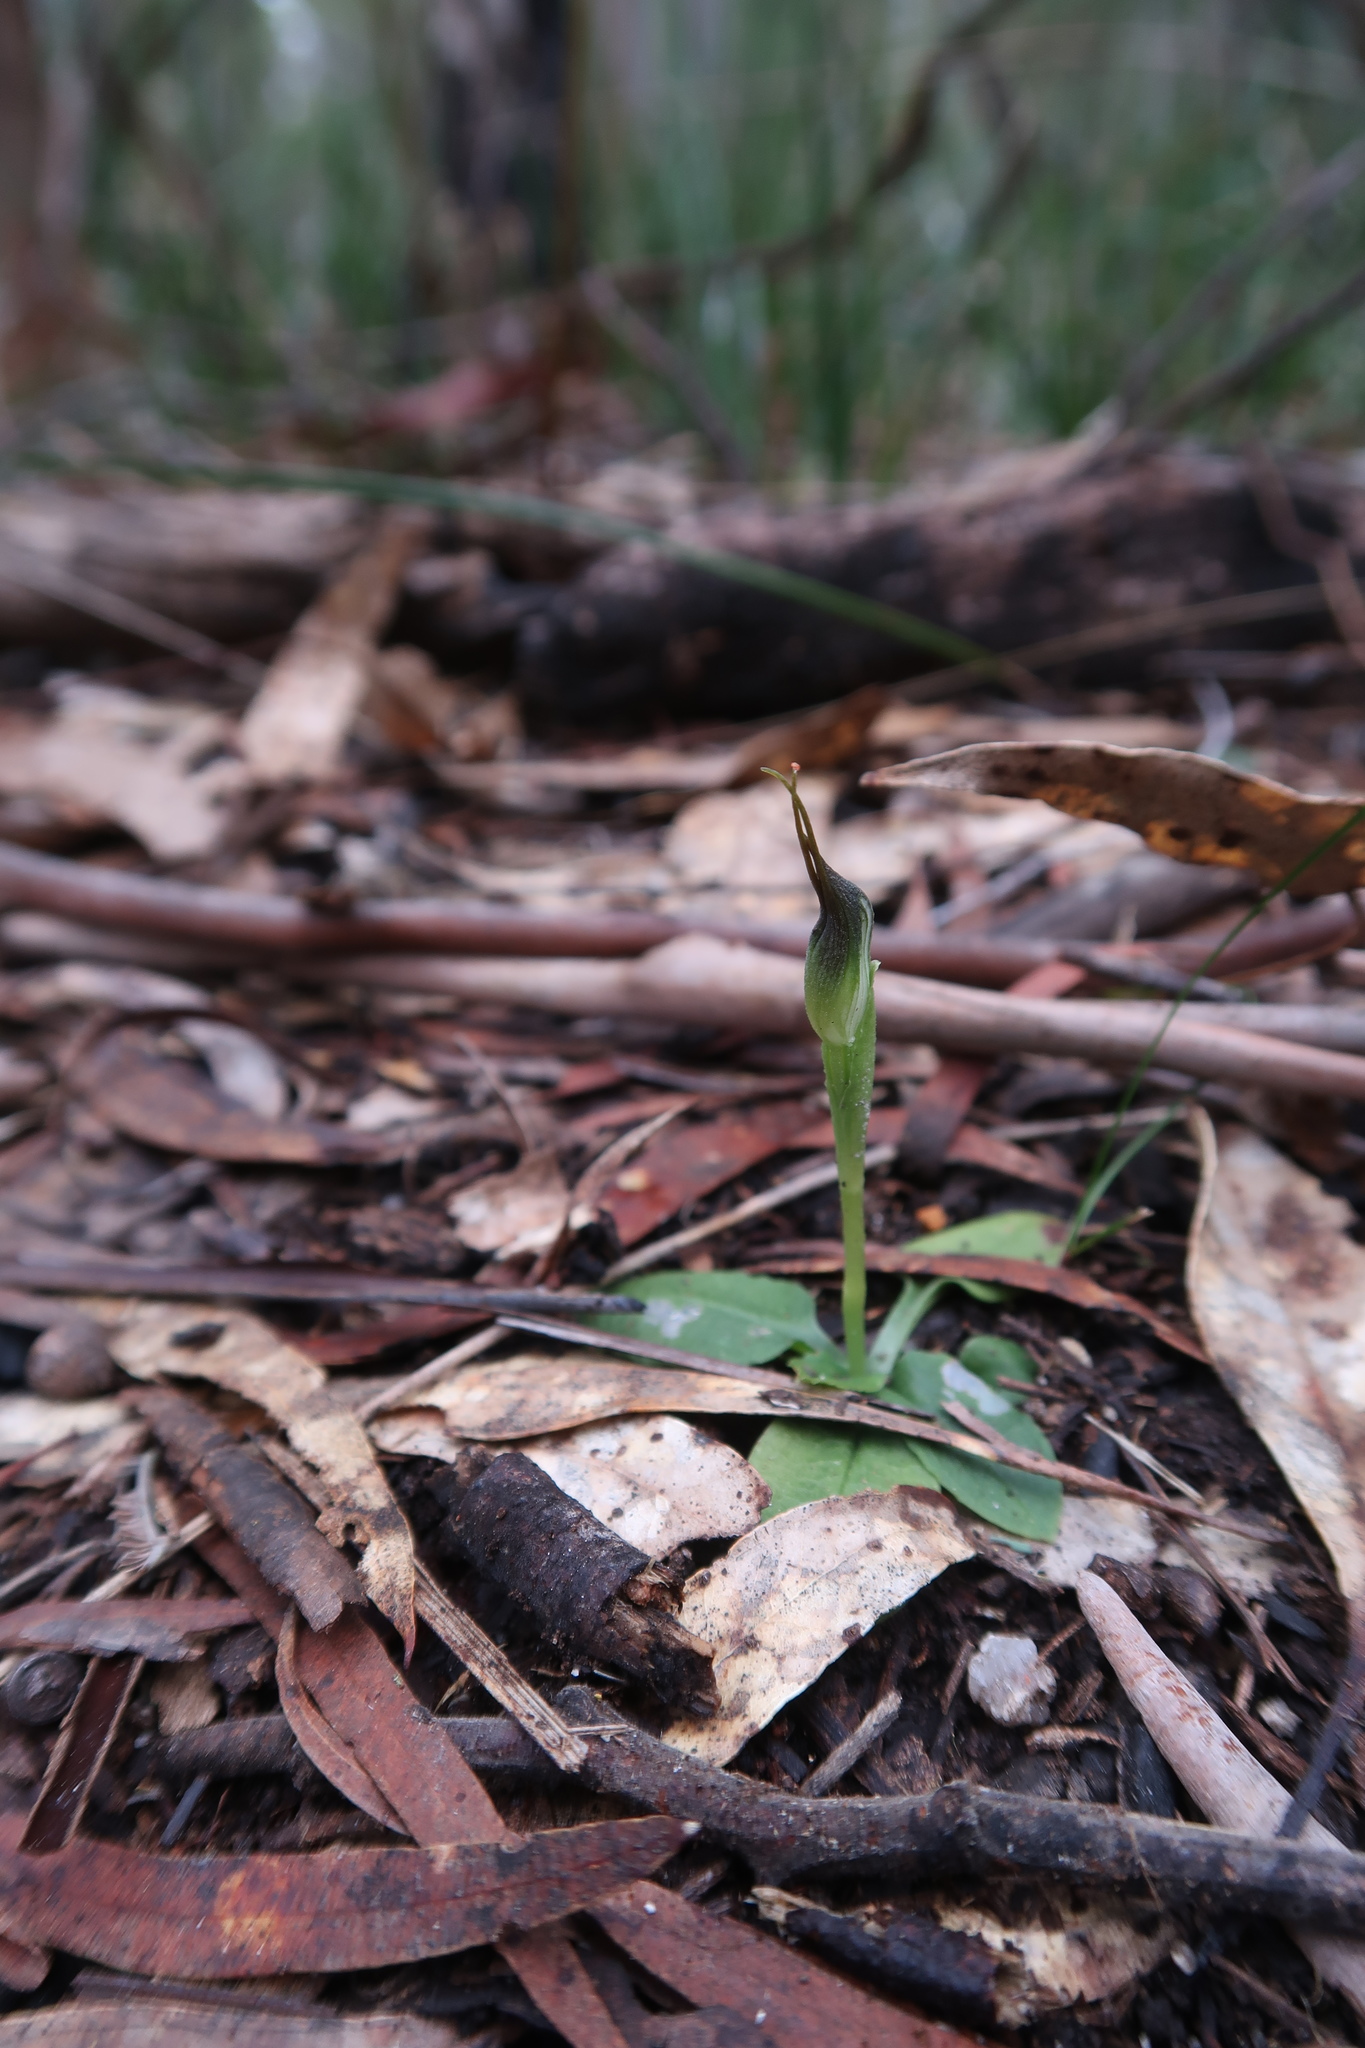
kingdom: Plantae
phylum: Tracheophyta
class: Liliopsida
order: Asparagales
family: Orchidaceae
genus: Pterostylis
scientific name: Pterostylis pedunculata
